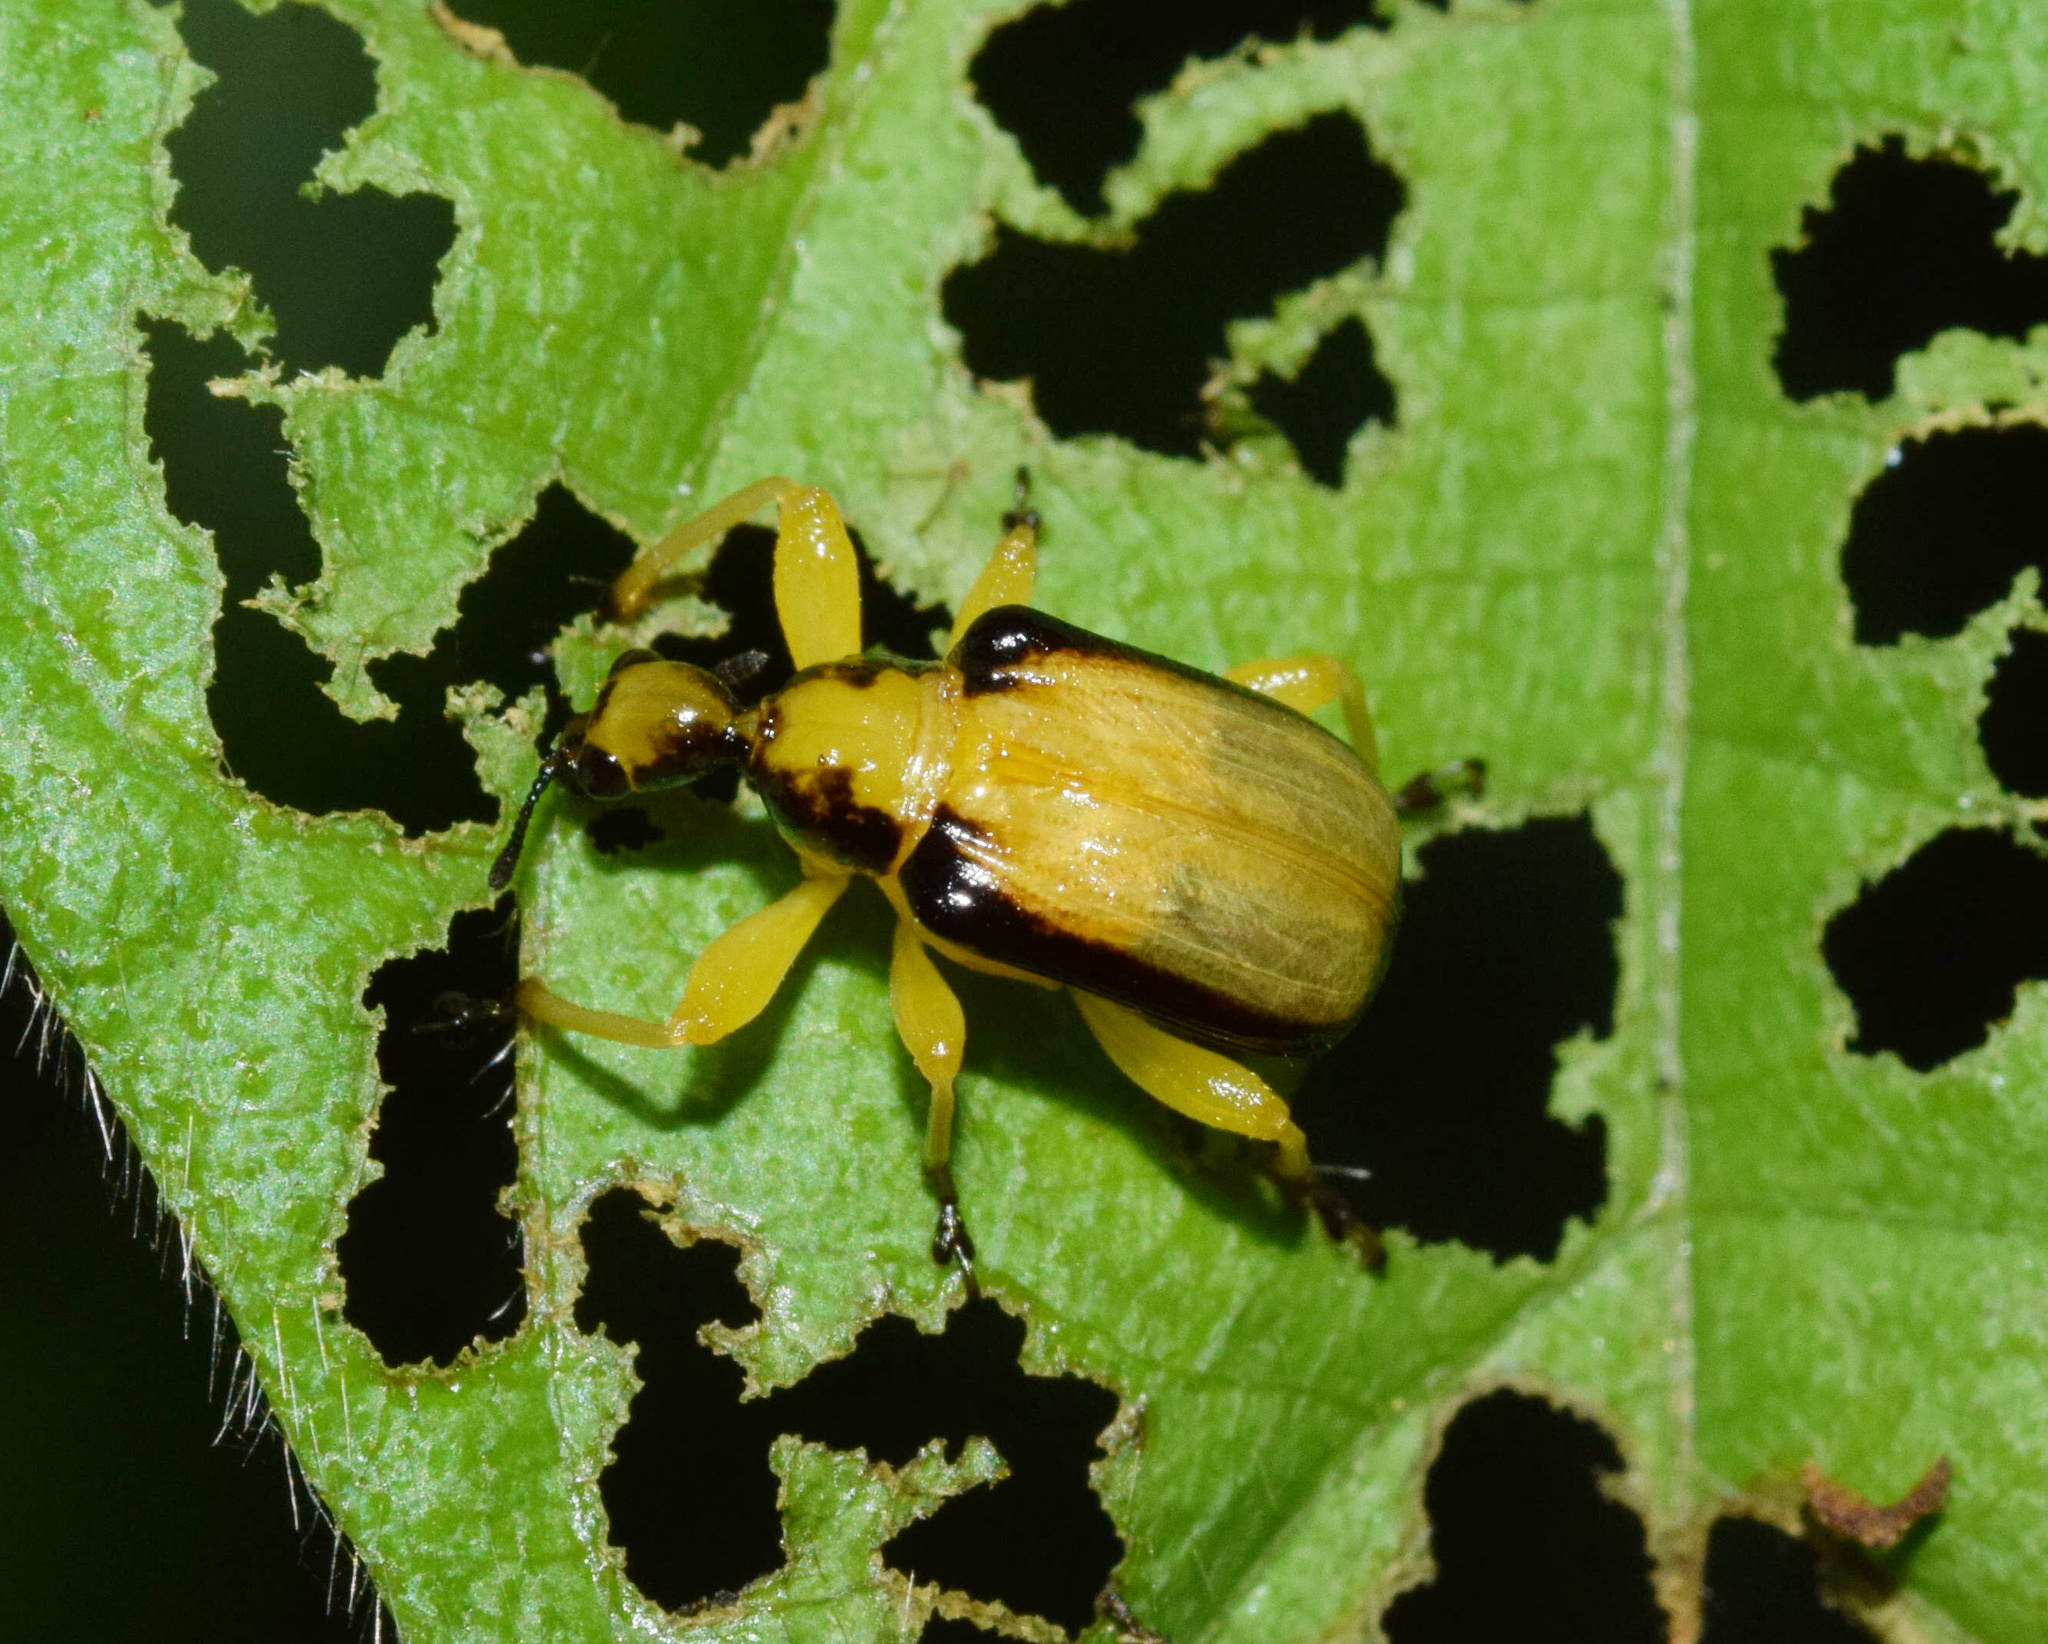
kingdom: Animalia
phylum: Arthropoda
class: Insecta
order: Coleoptera
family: Attelabidae
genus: Paratomapoderus
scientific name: Paratomapoderus balteus
